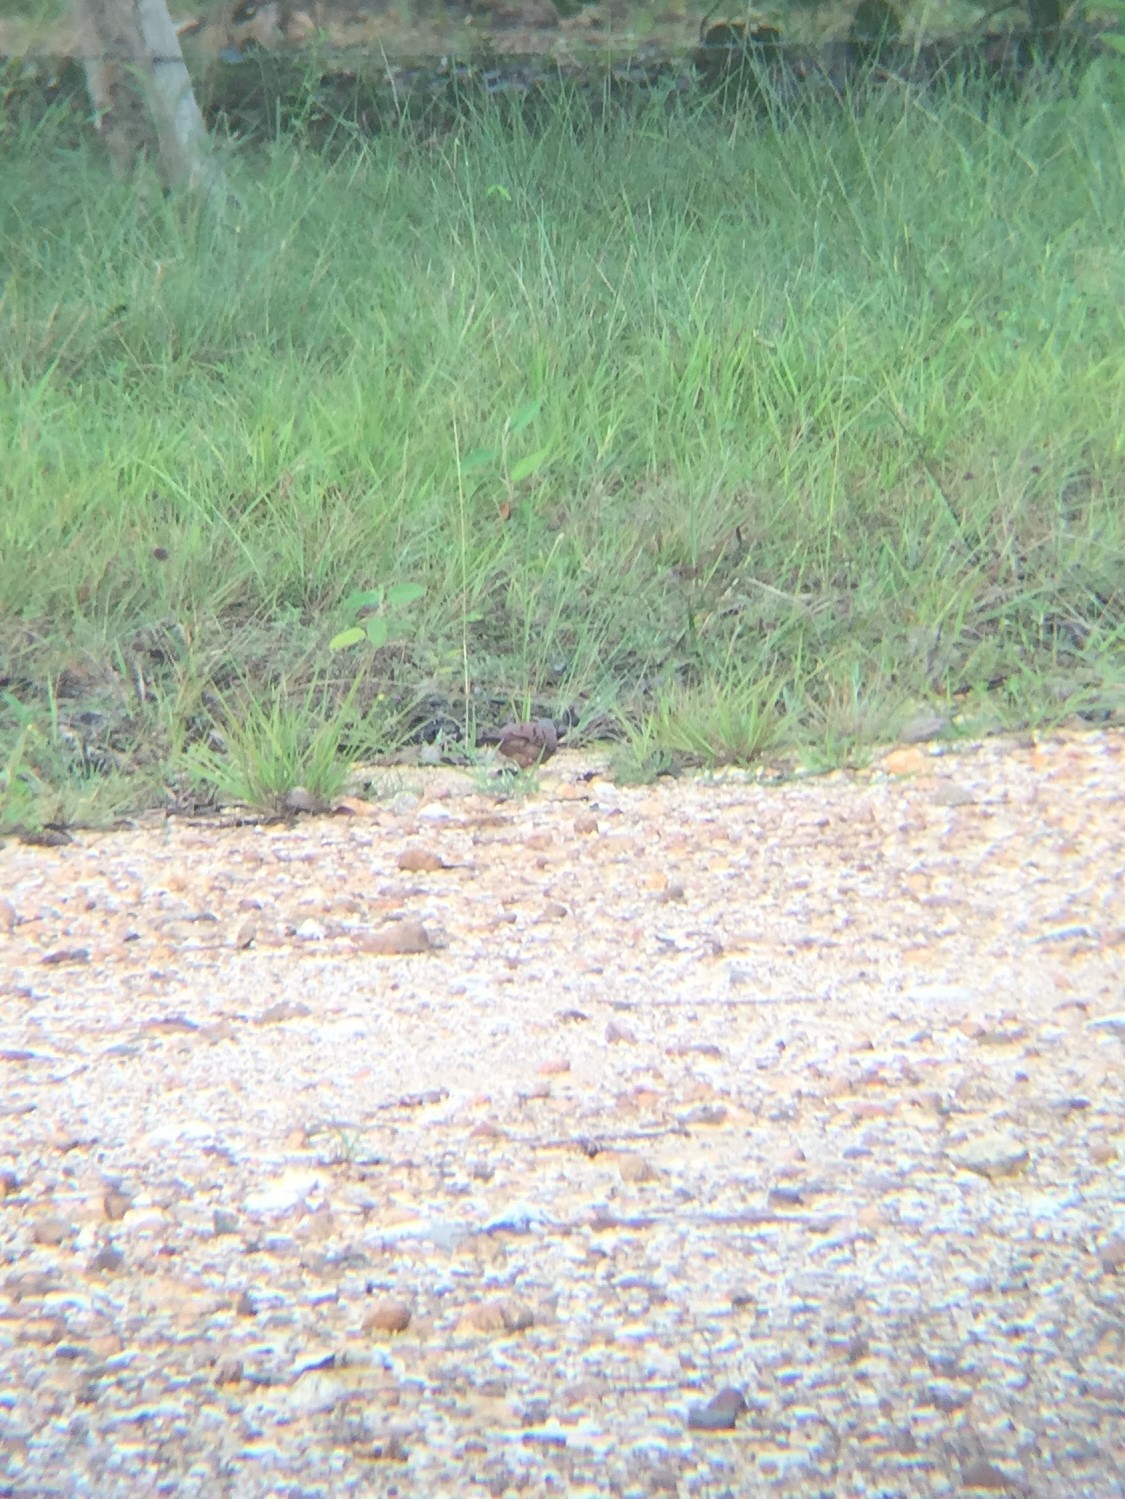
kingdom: Animalia
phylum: Chordata
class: Aves
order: Columbiformes
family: Columbidae
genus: Columbina
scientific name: Columbina talpacoti
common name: Ruddy ground dove
